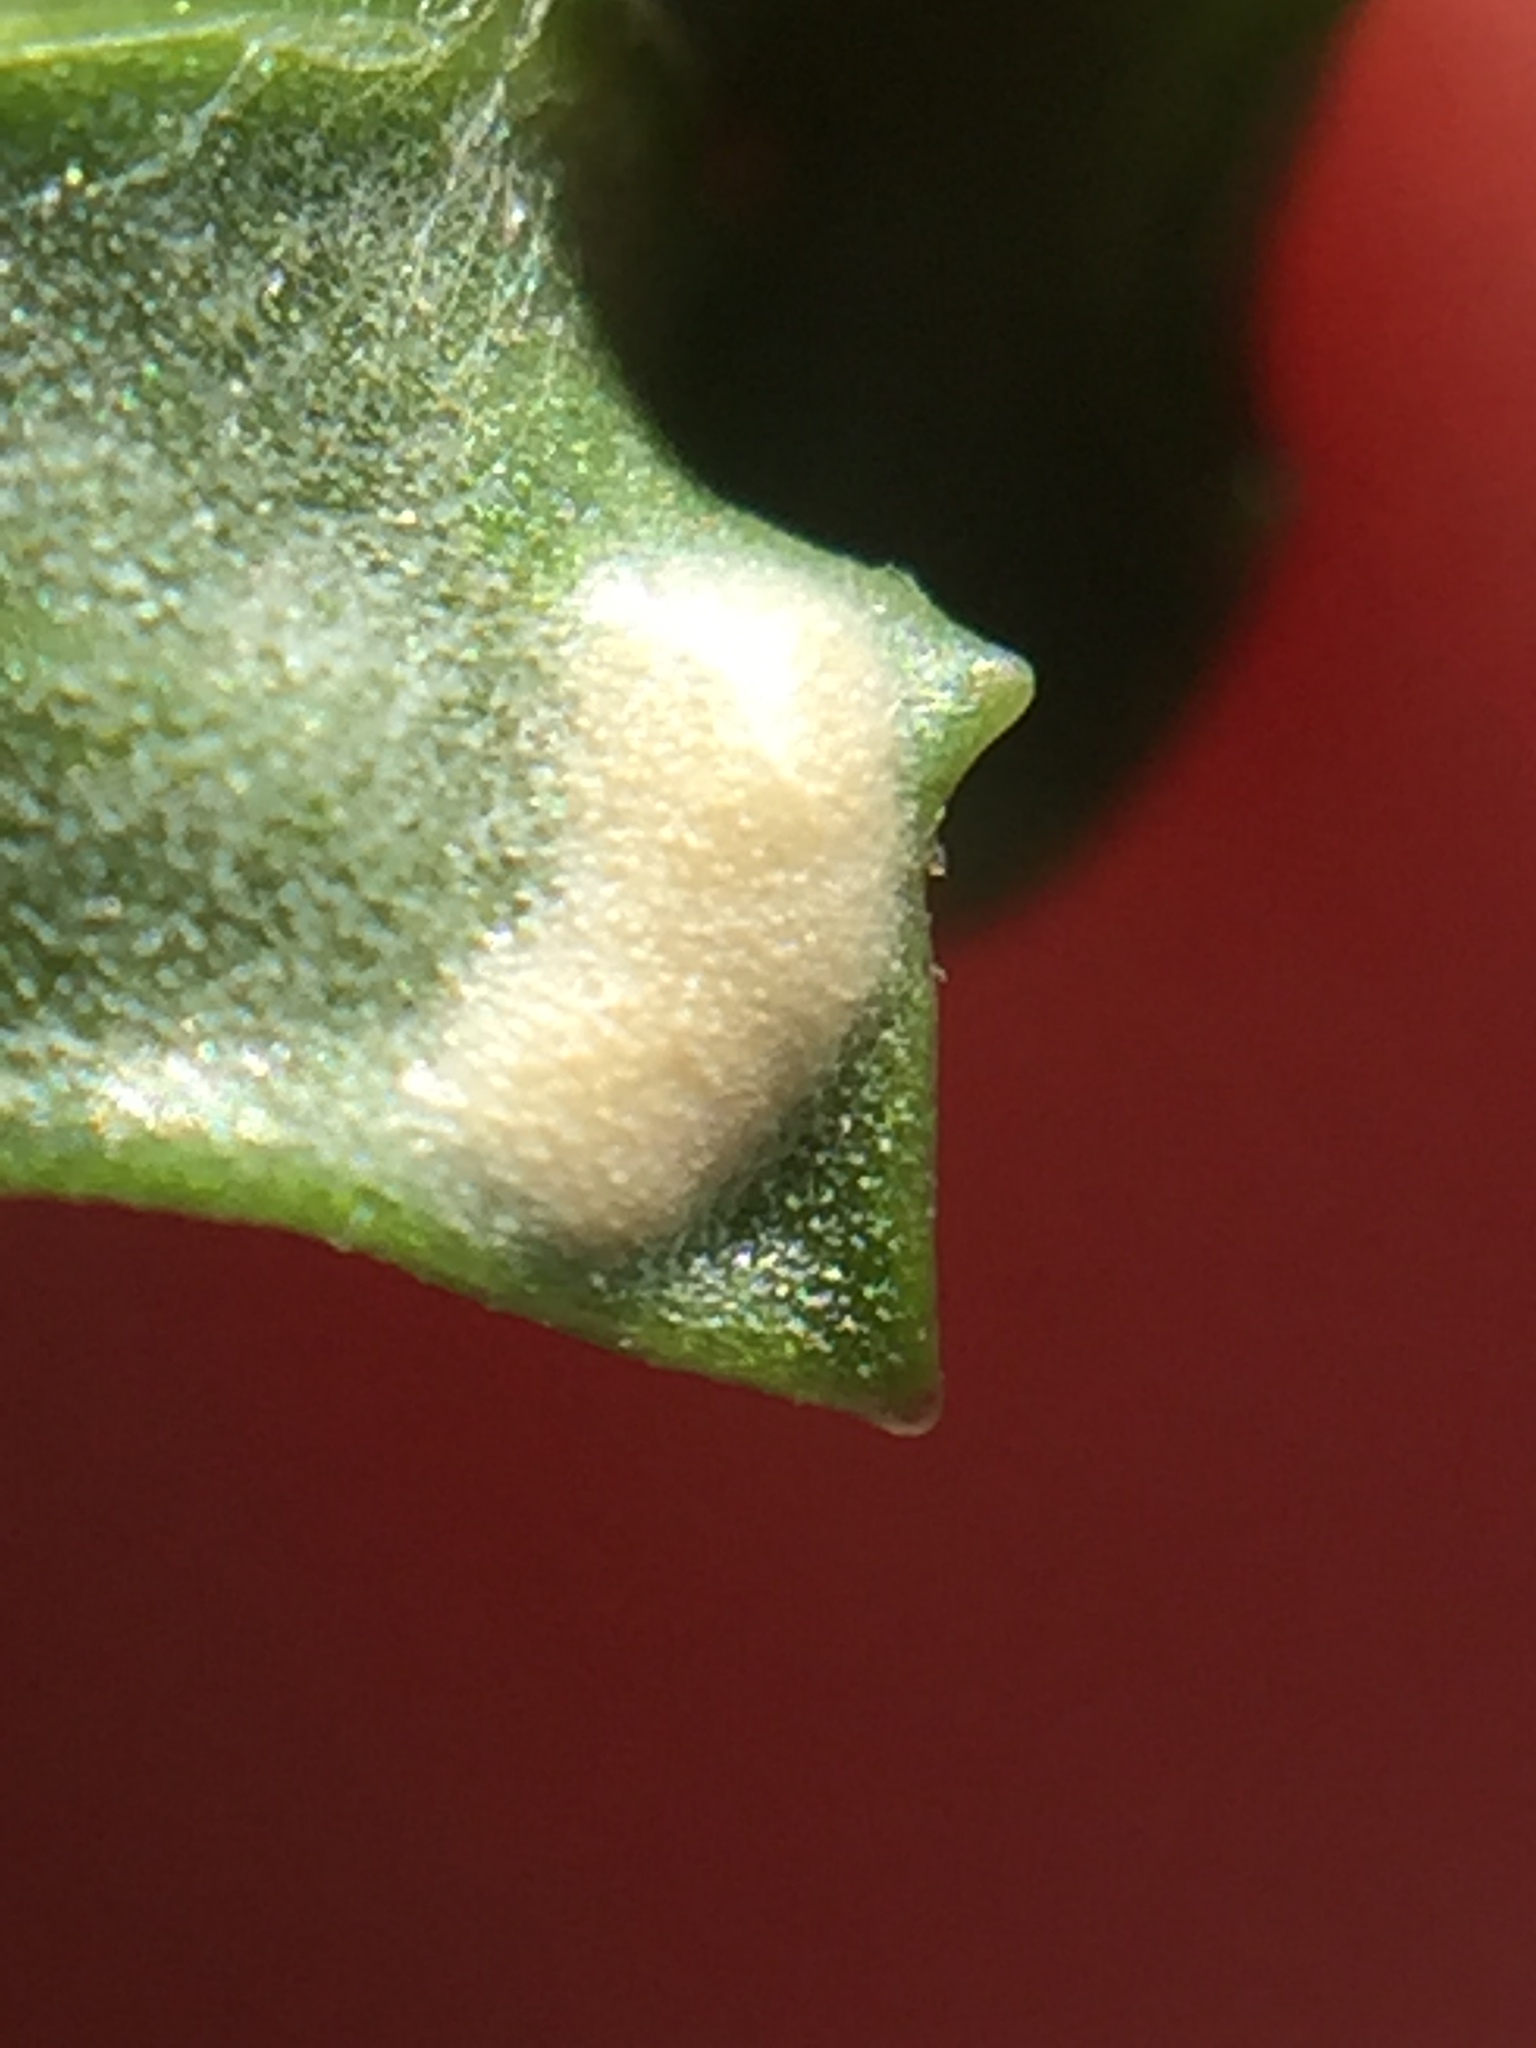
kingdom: Chromista
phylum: Oomycota
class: Peronosporea
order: Albuginales
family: Albuginaceae
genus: Pustula
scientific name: Pustula
